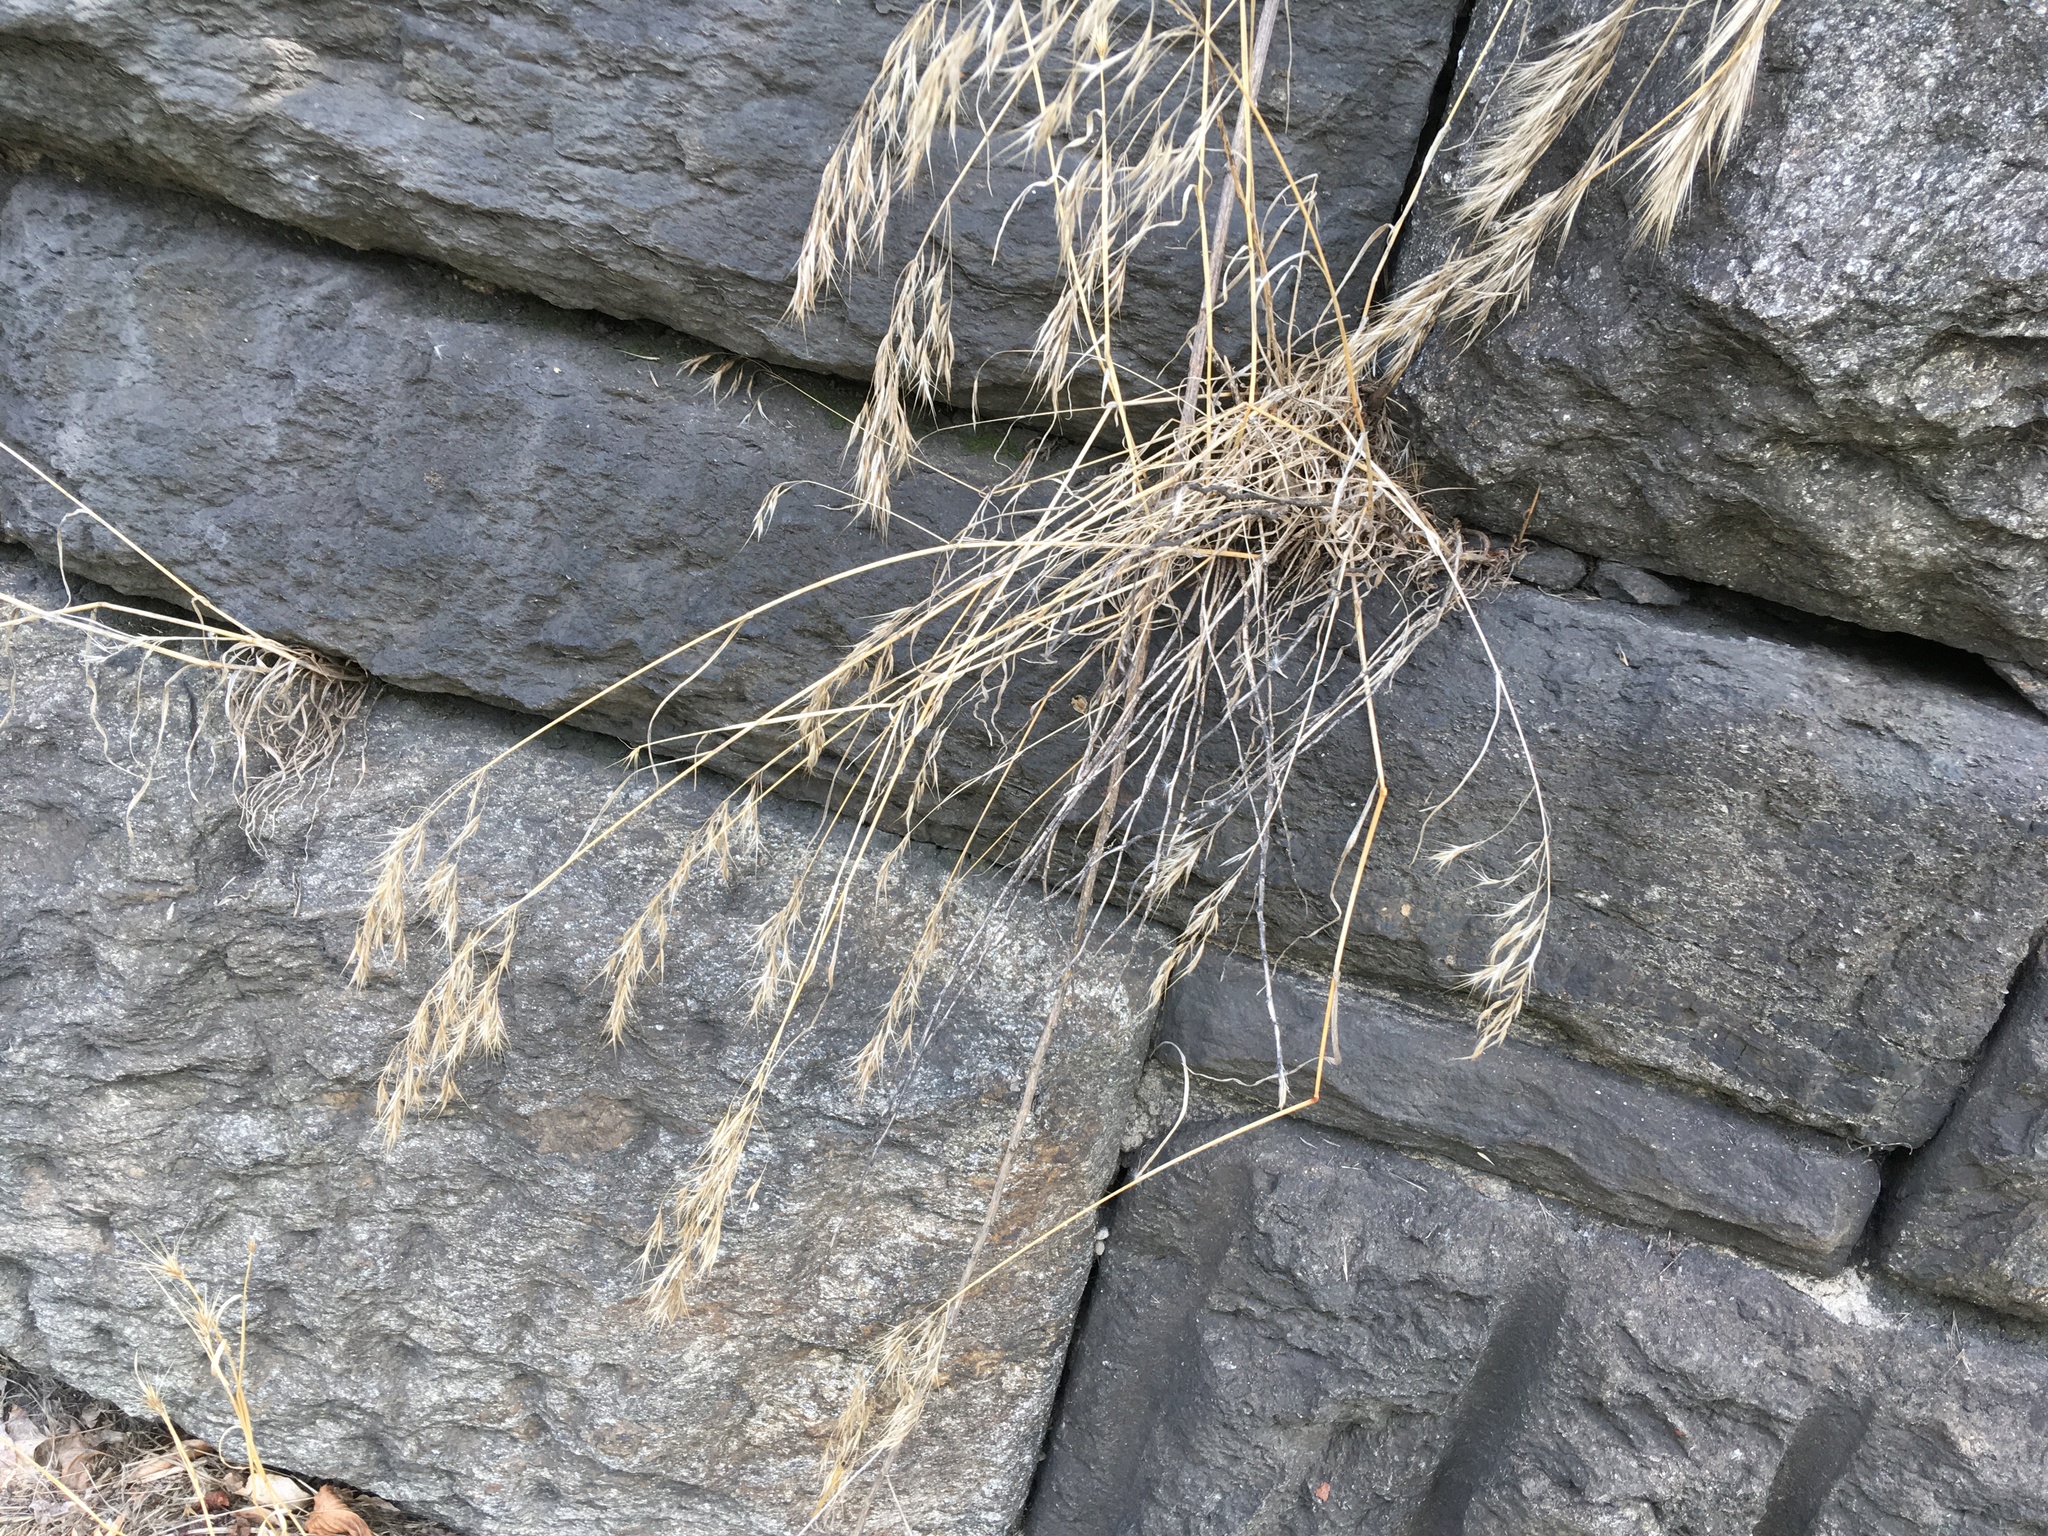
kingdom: Plantae
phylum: Tracheophyta
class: Liliopsida
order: Poales
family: Poaceae
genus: Bromus
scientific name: Bromus tectorum
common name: Cheatgrass
